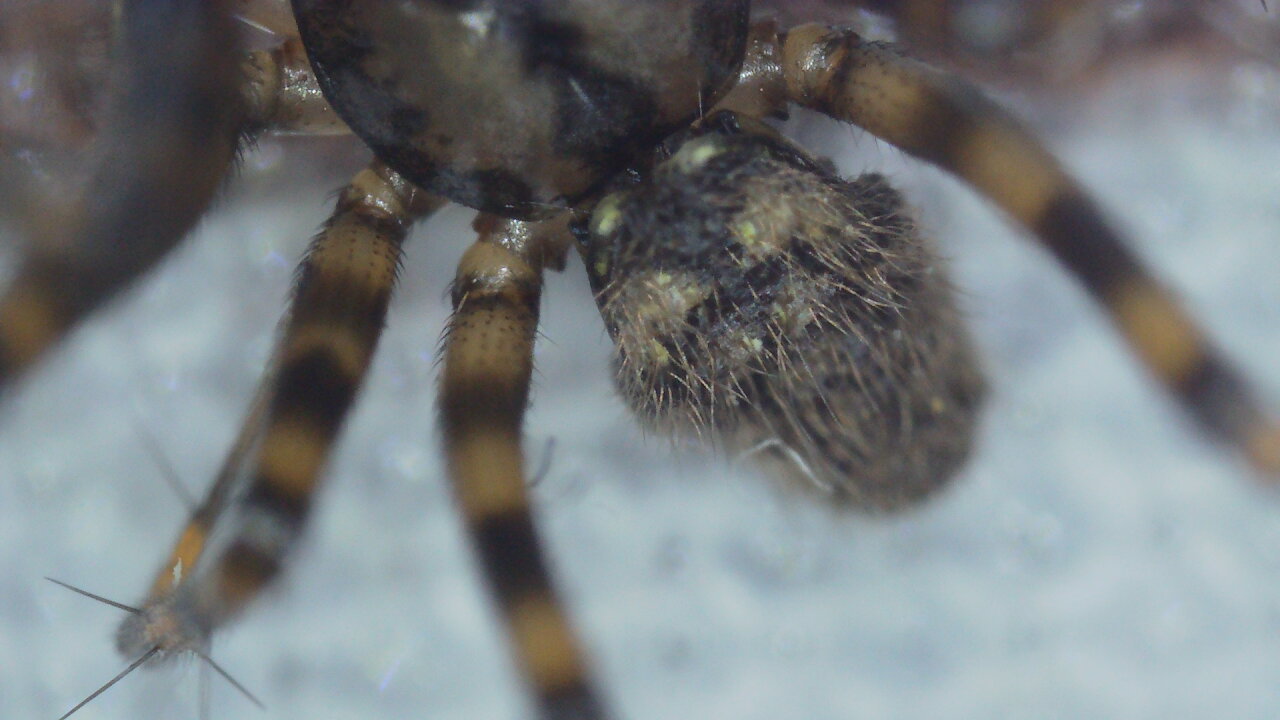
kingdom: Animalia
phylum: Arthropoda
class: Arachnida
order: Araneae
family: Linyphiidae
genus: Labulla
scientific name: Labulla thoracica
